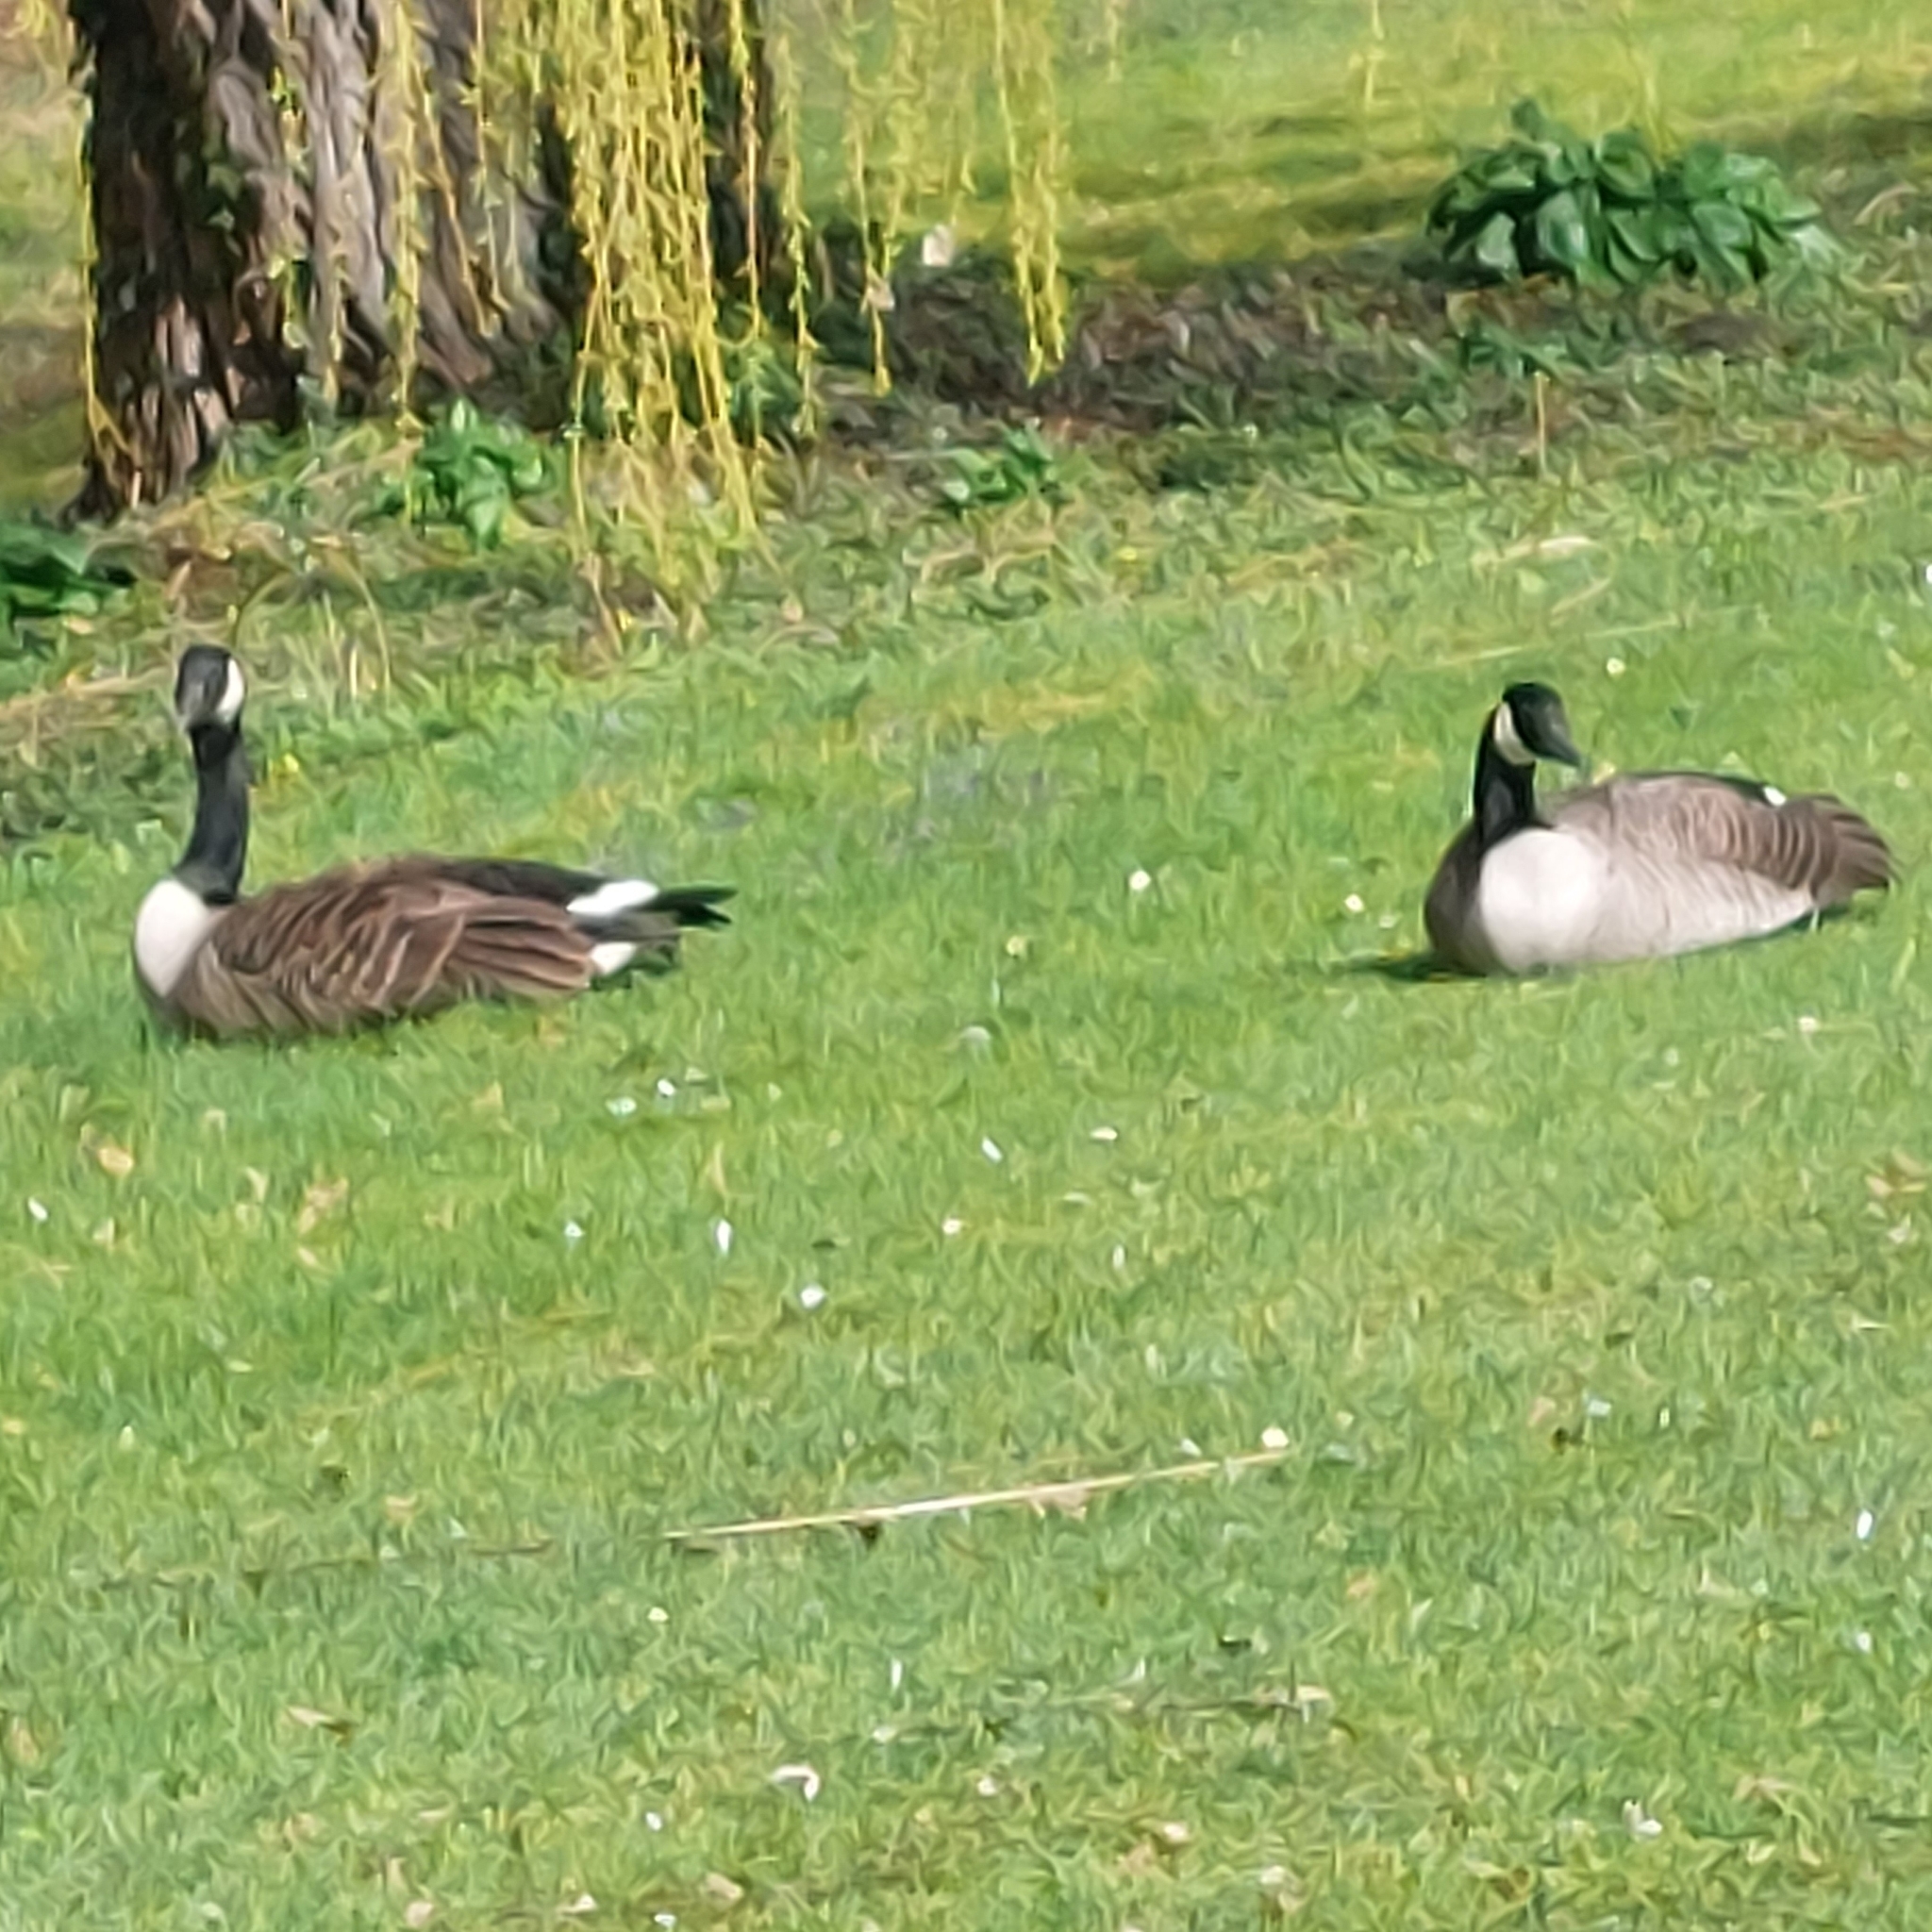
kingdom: Animalia
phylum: Chordata
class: Aves
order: Anseriformes
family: Anatidae
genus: Branta
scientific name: Branta canadensis
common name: Canada goose
